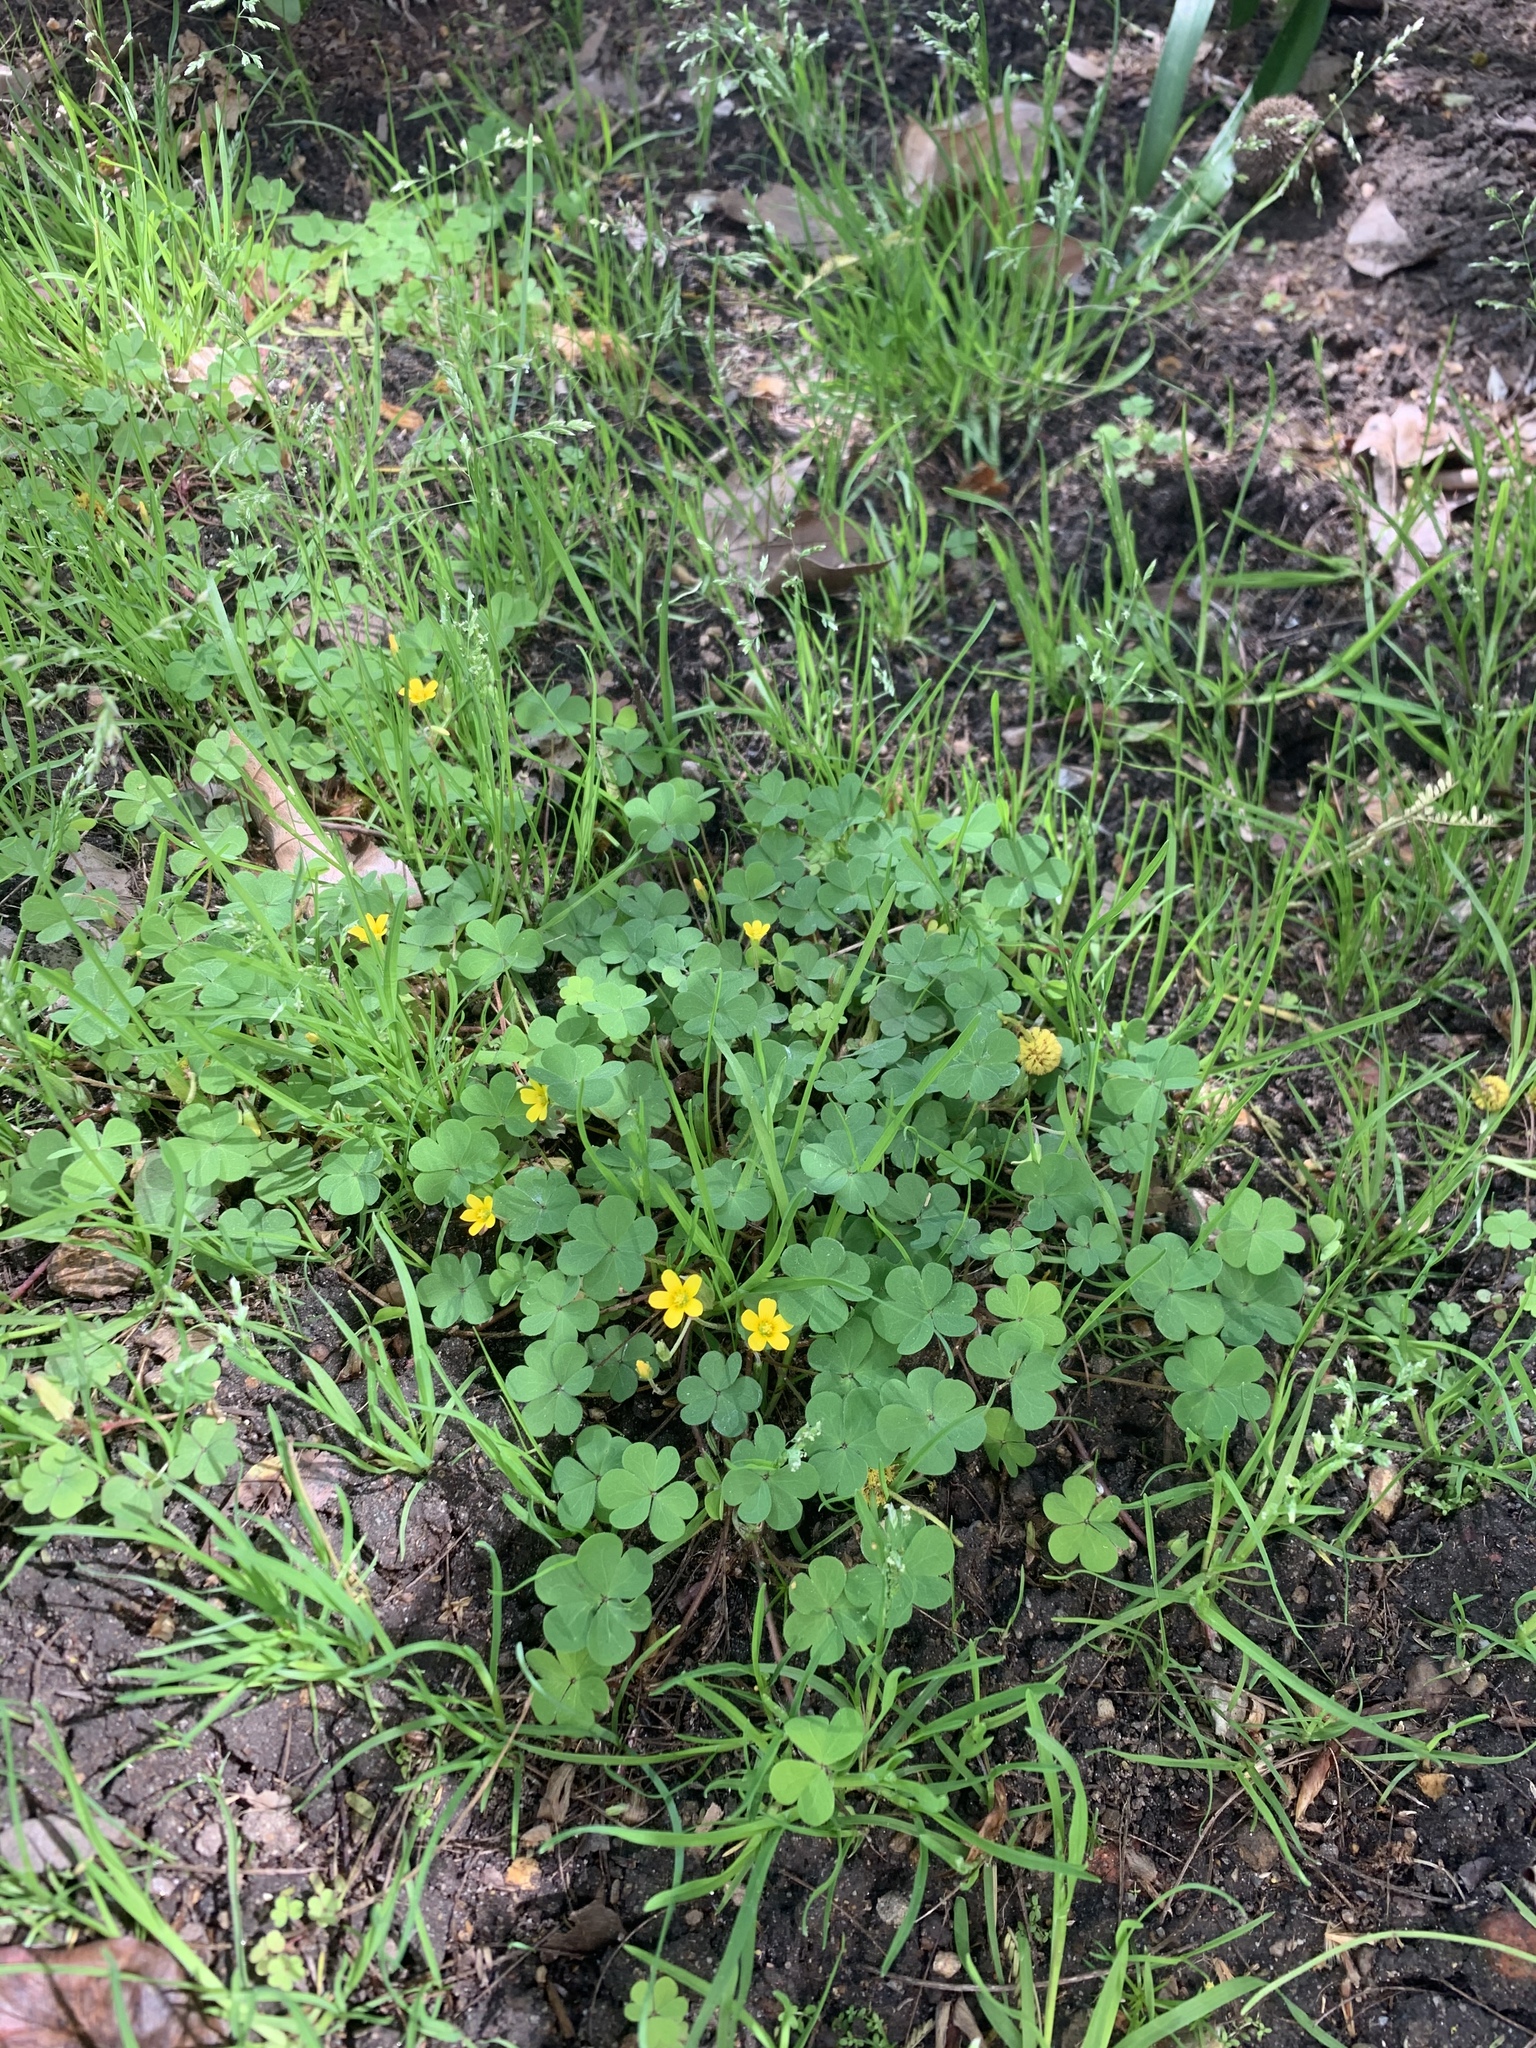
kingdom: Plantae
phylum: Tracheophyta
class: Magnoliopsida
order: Oxalidales
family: Oxalidaceae
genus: Oxalis
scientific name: Oxalis corniculata
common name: Procumbent yellow-sorrel
